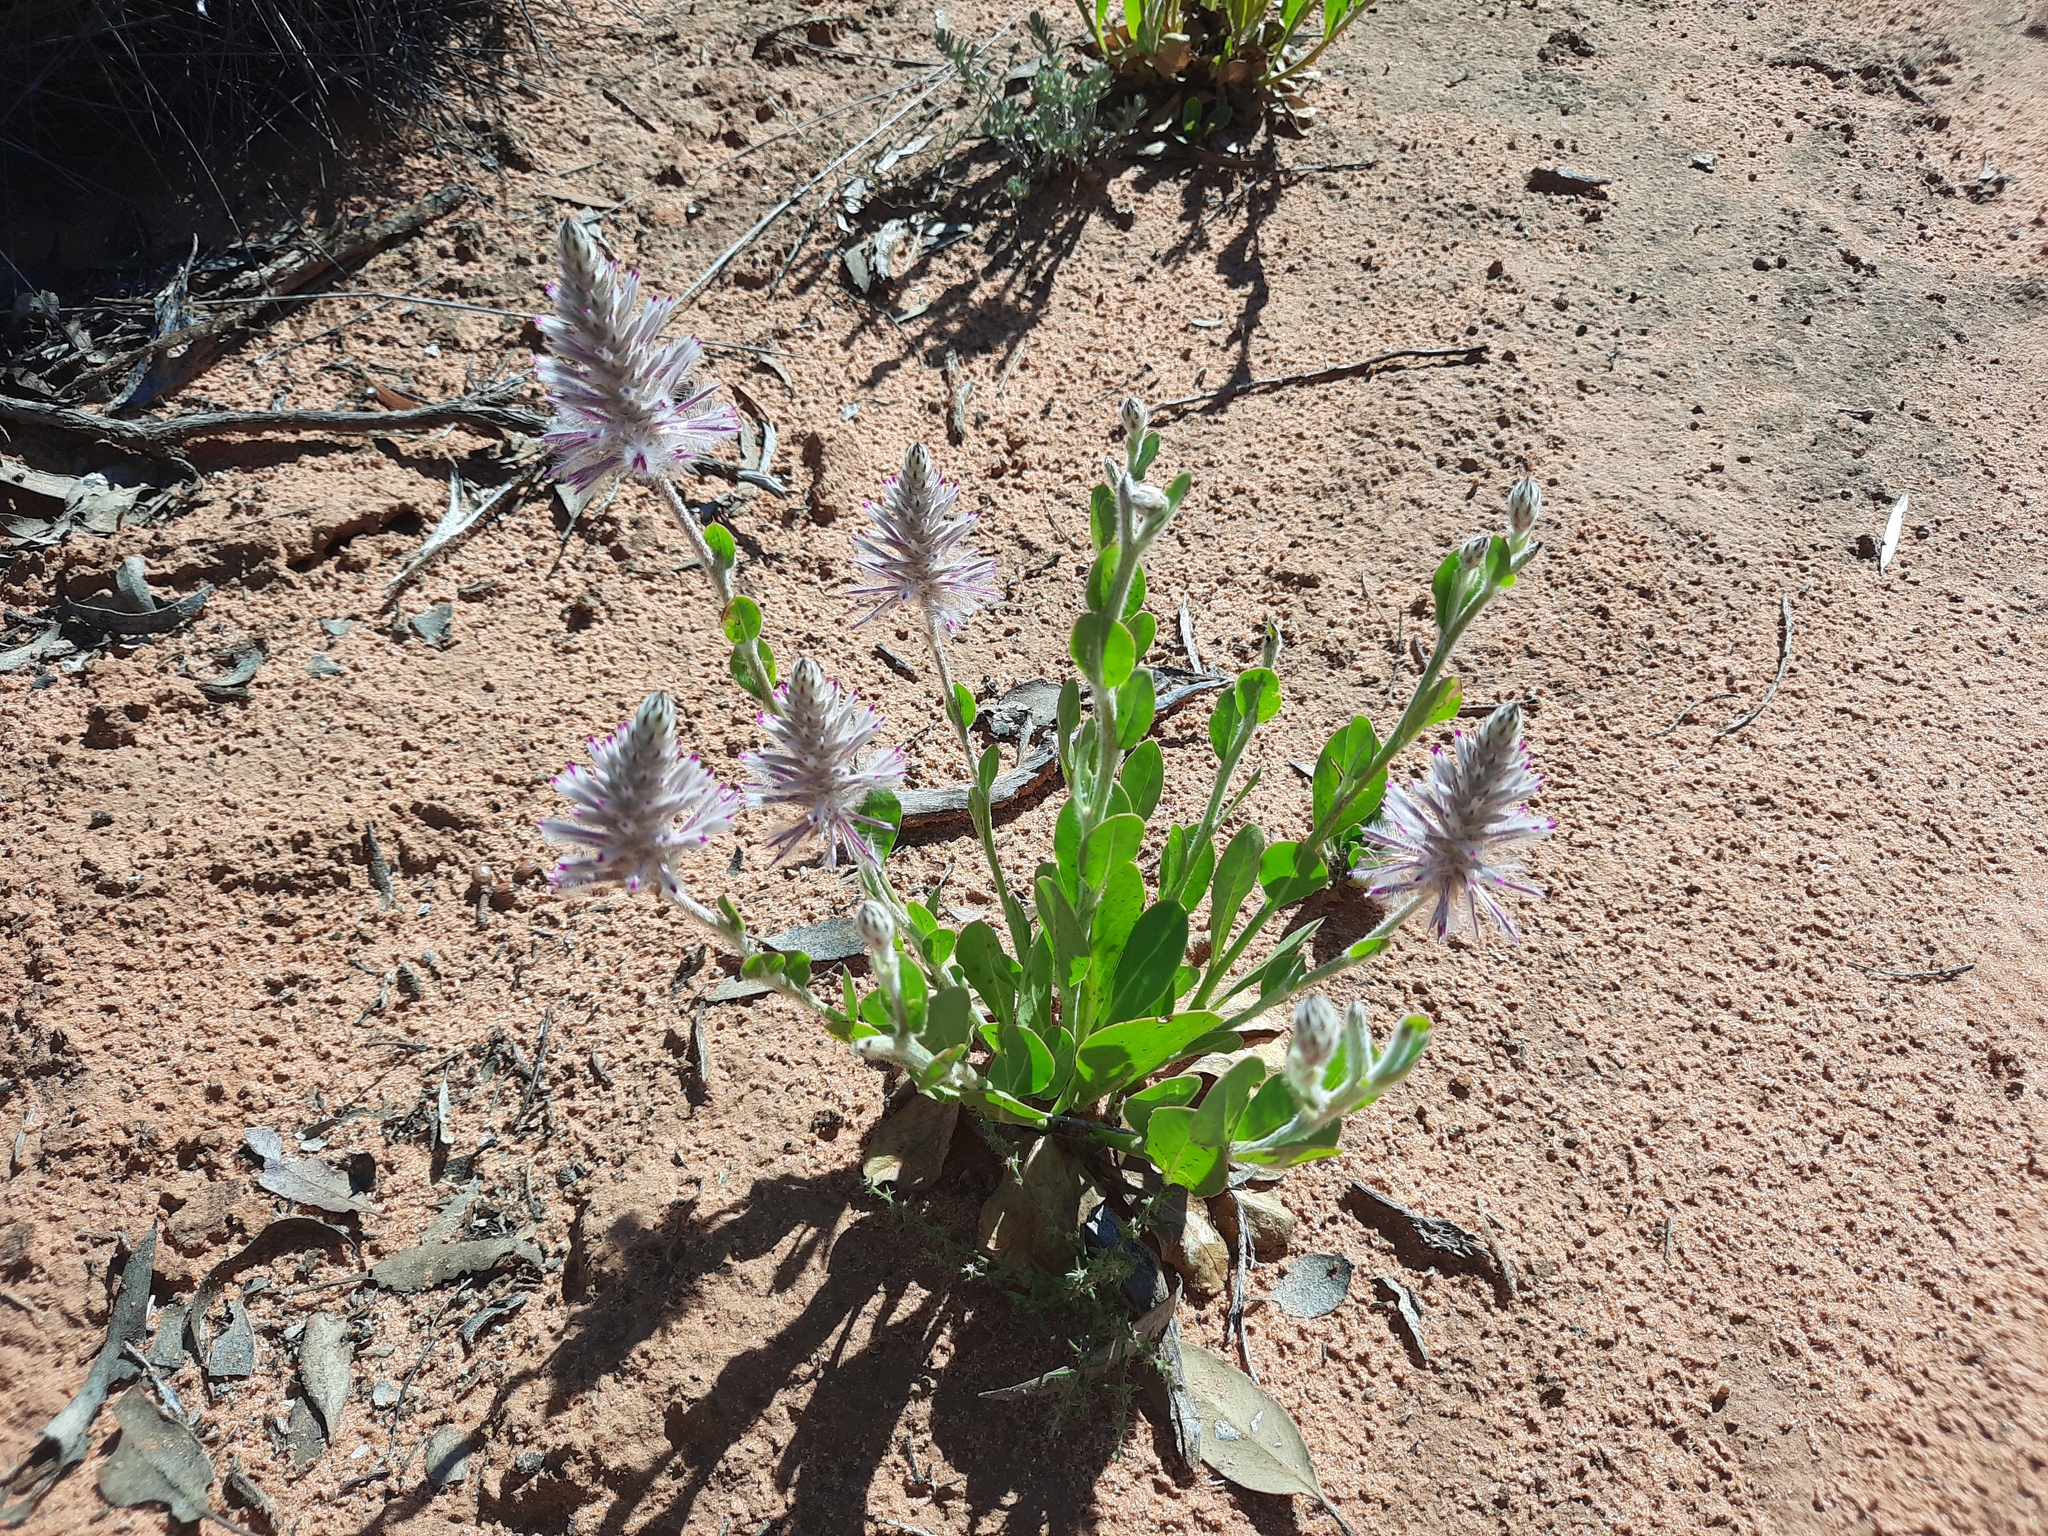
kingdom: Plantae
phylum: Tracheophyta
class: Magnoliopsida
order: Caryophyllales
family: Amaranthaceae
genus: Ptilotus
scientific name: Ptilotus exaltatus
